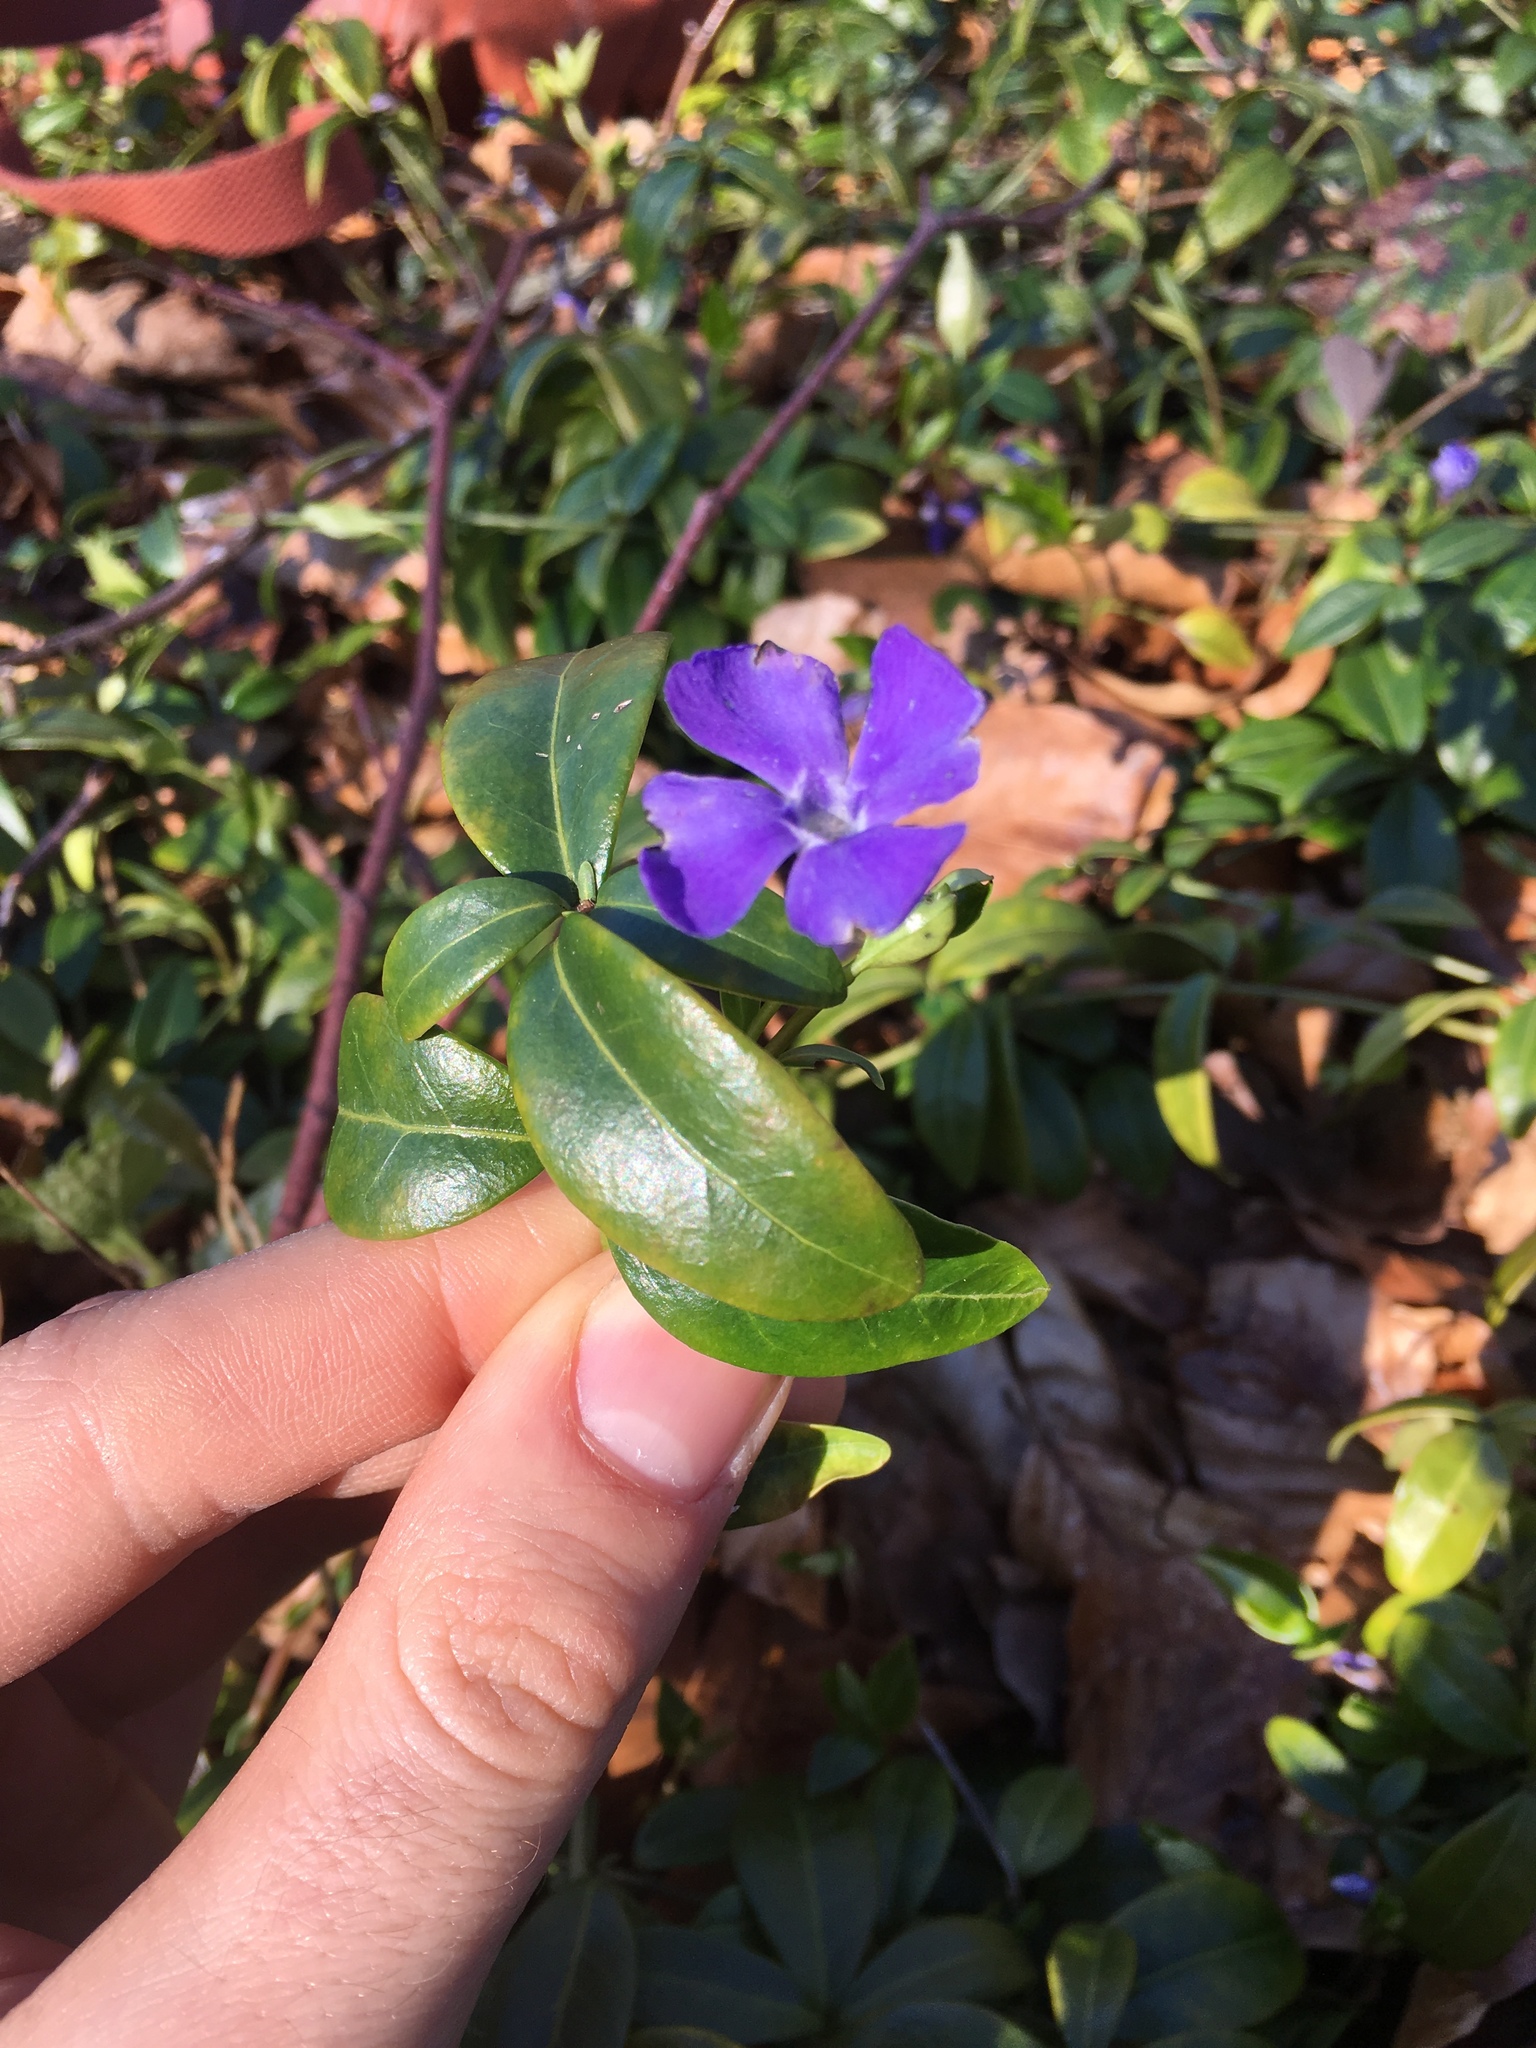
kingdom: Plantae
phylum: Tracheophyta
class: Magnoliopsida
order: Gentianales
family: Apocynaceae
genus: Vinca
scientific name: Vinca minor
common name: Lesser periwinkle
